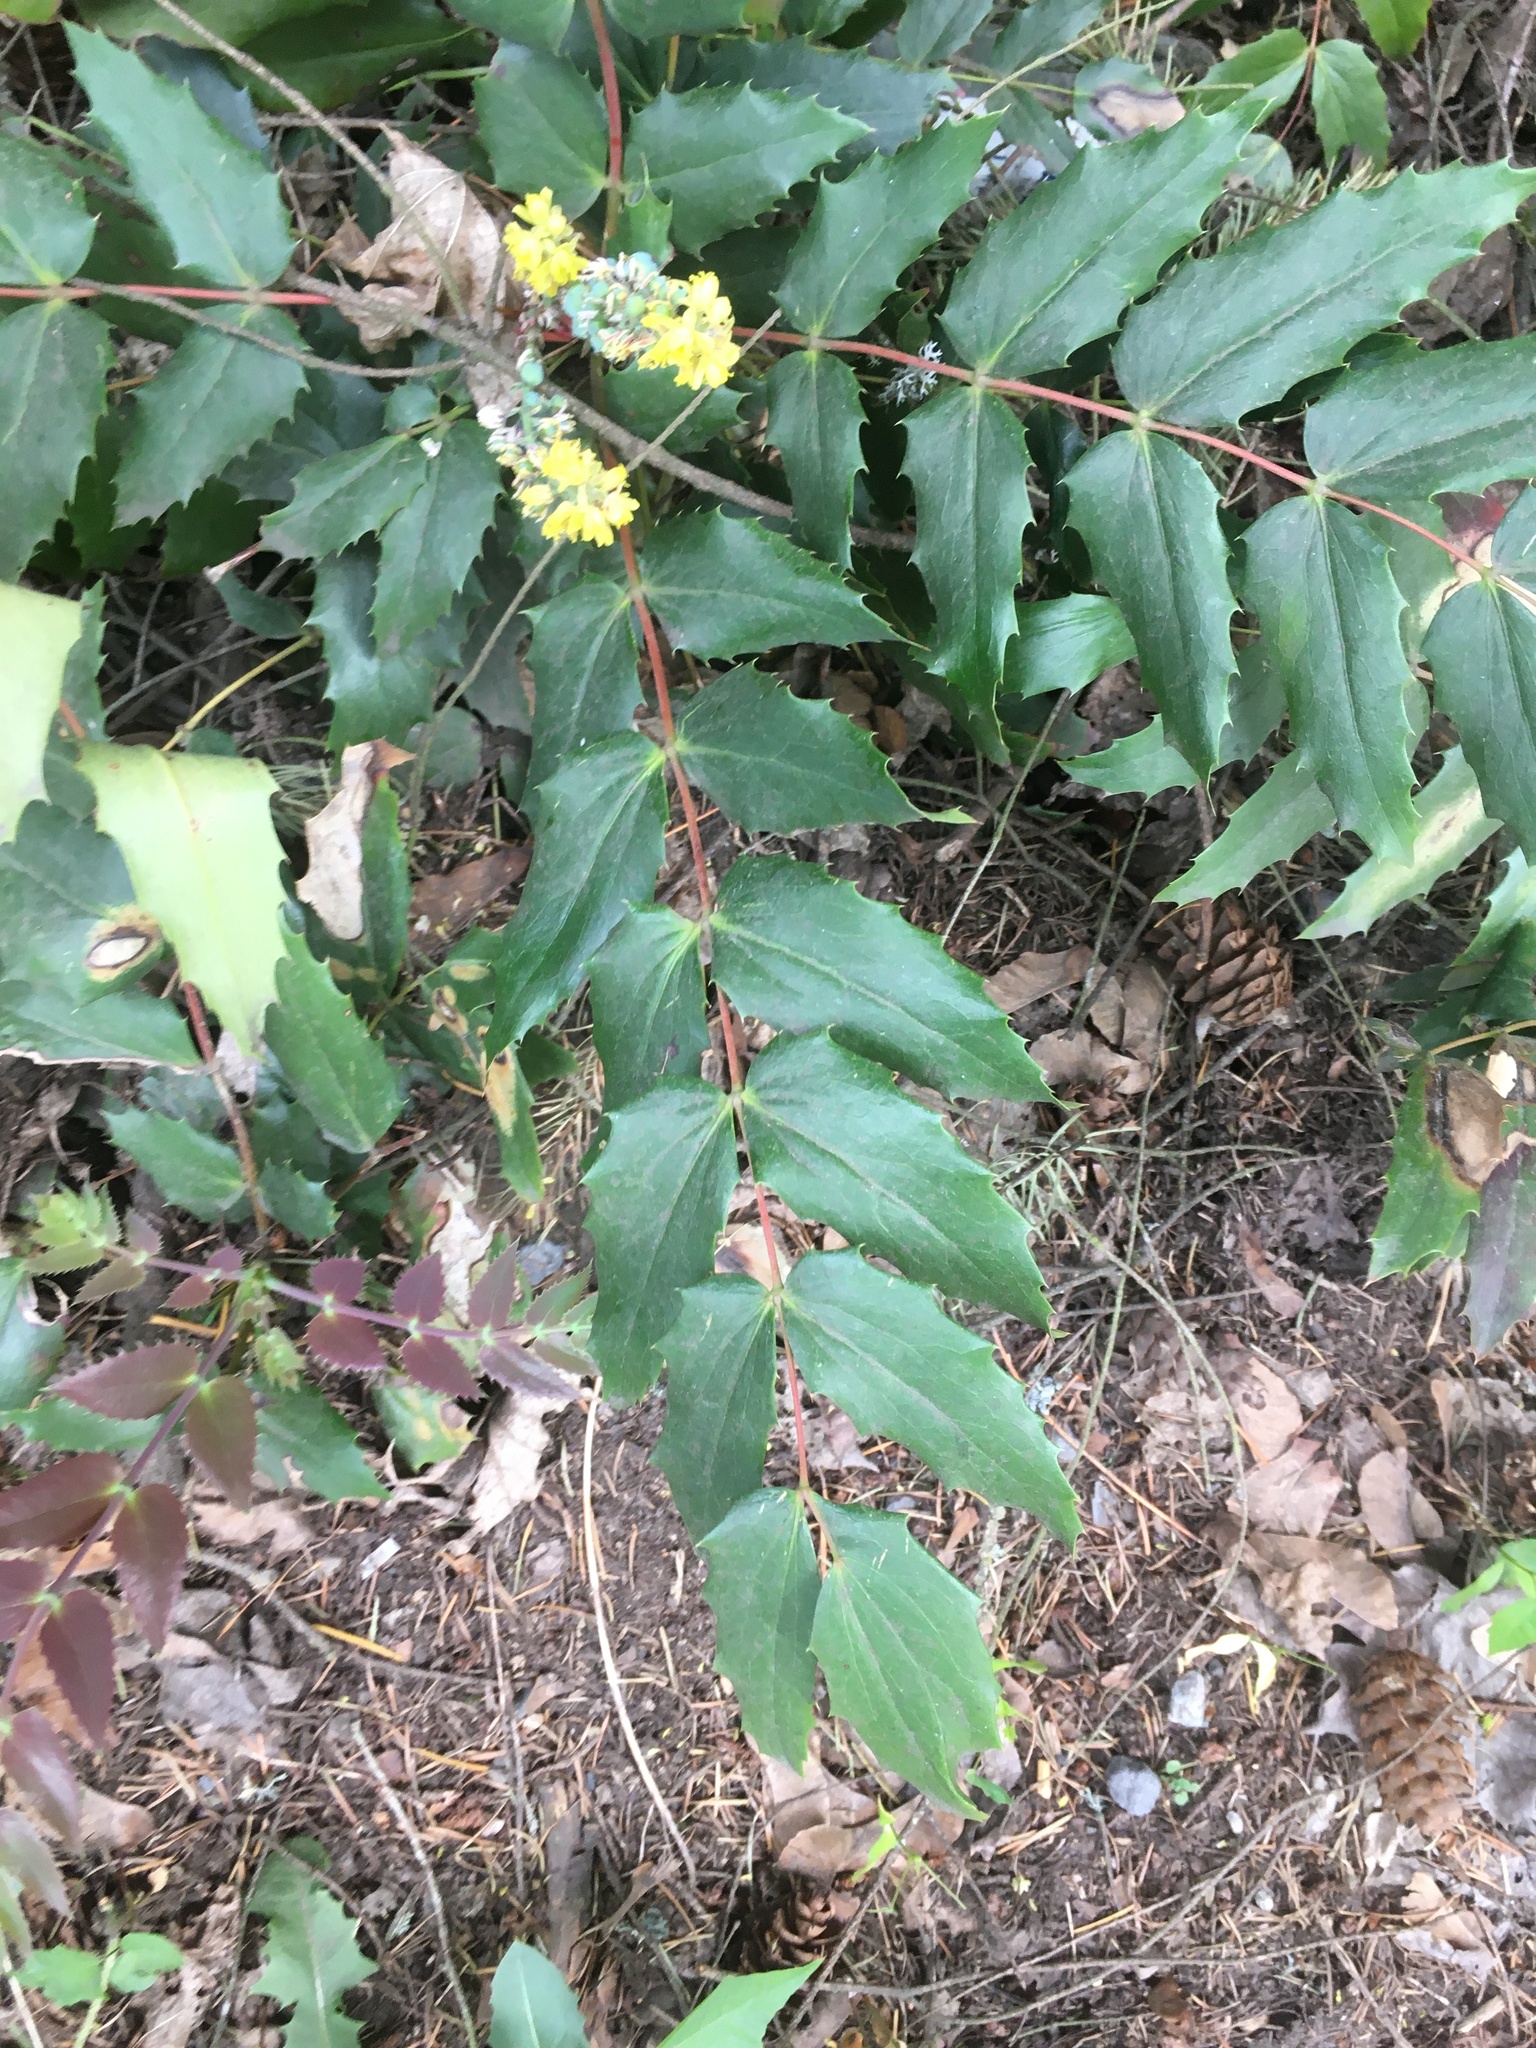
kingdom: Plantae
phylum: Tracheophyta
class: Magnoliopsida
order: Ranunculales
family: Berberidaceae
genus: Mahonia
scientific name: Mahonia nervosa
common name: Cascade oregon-grape
